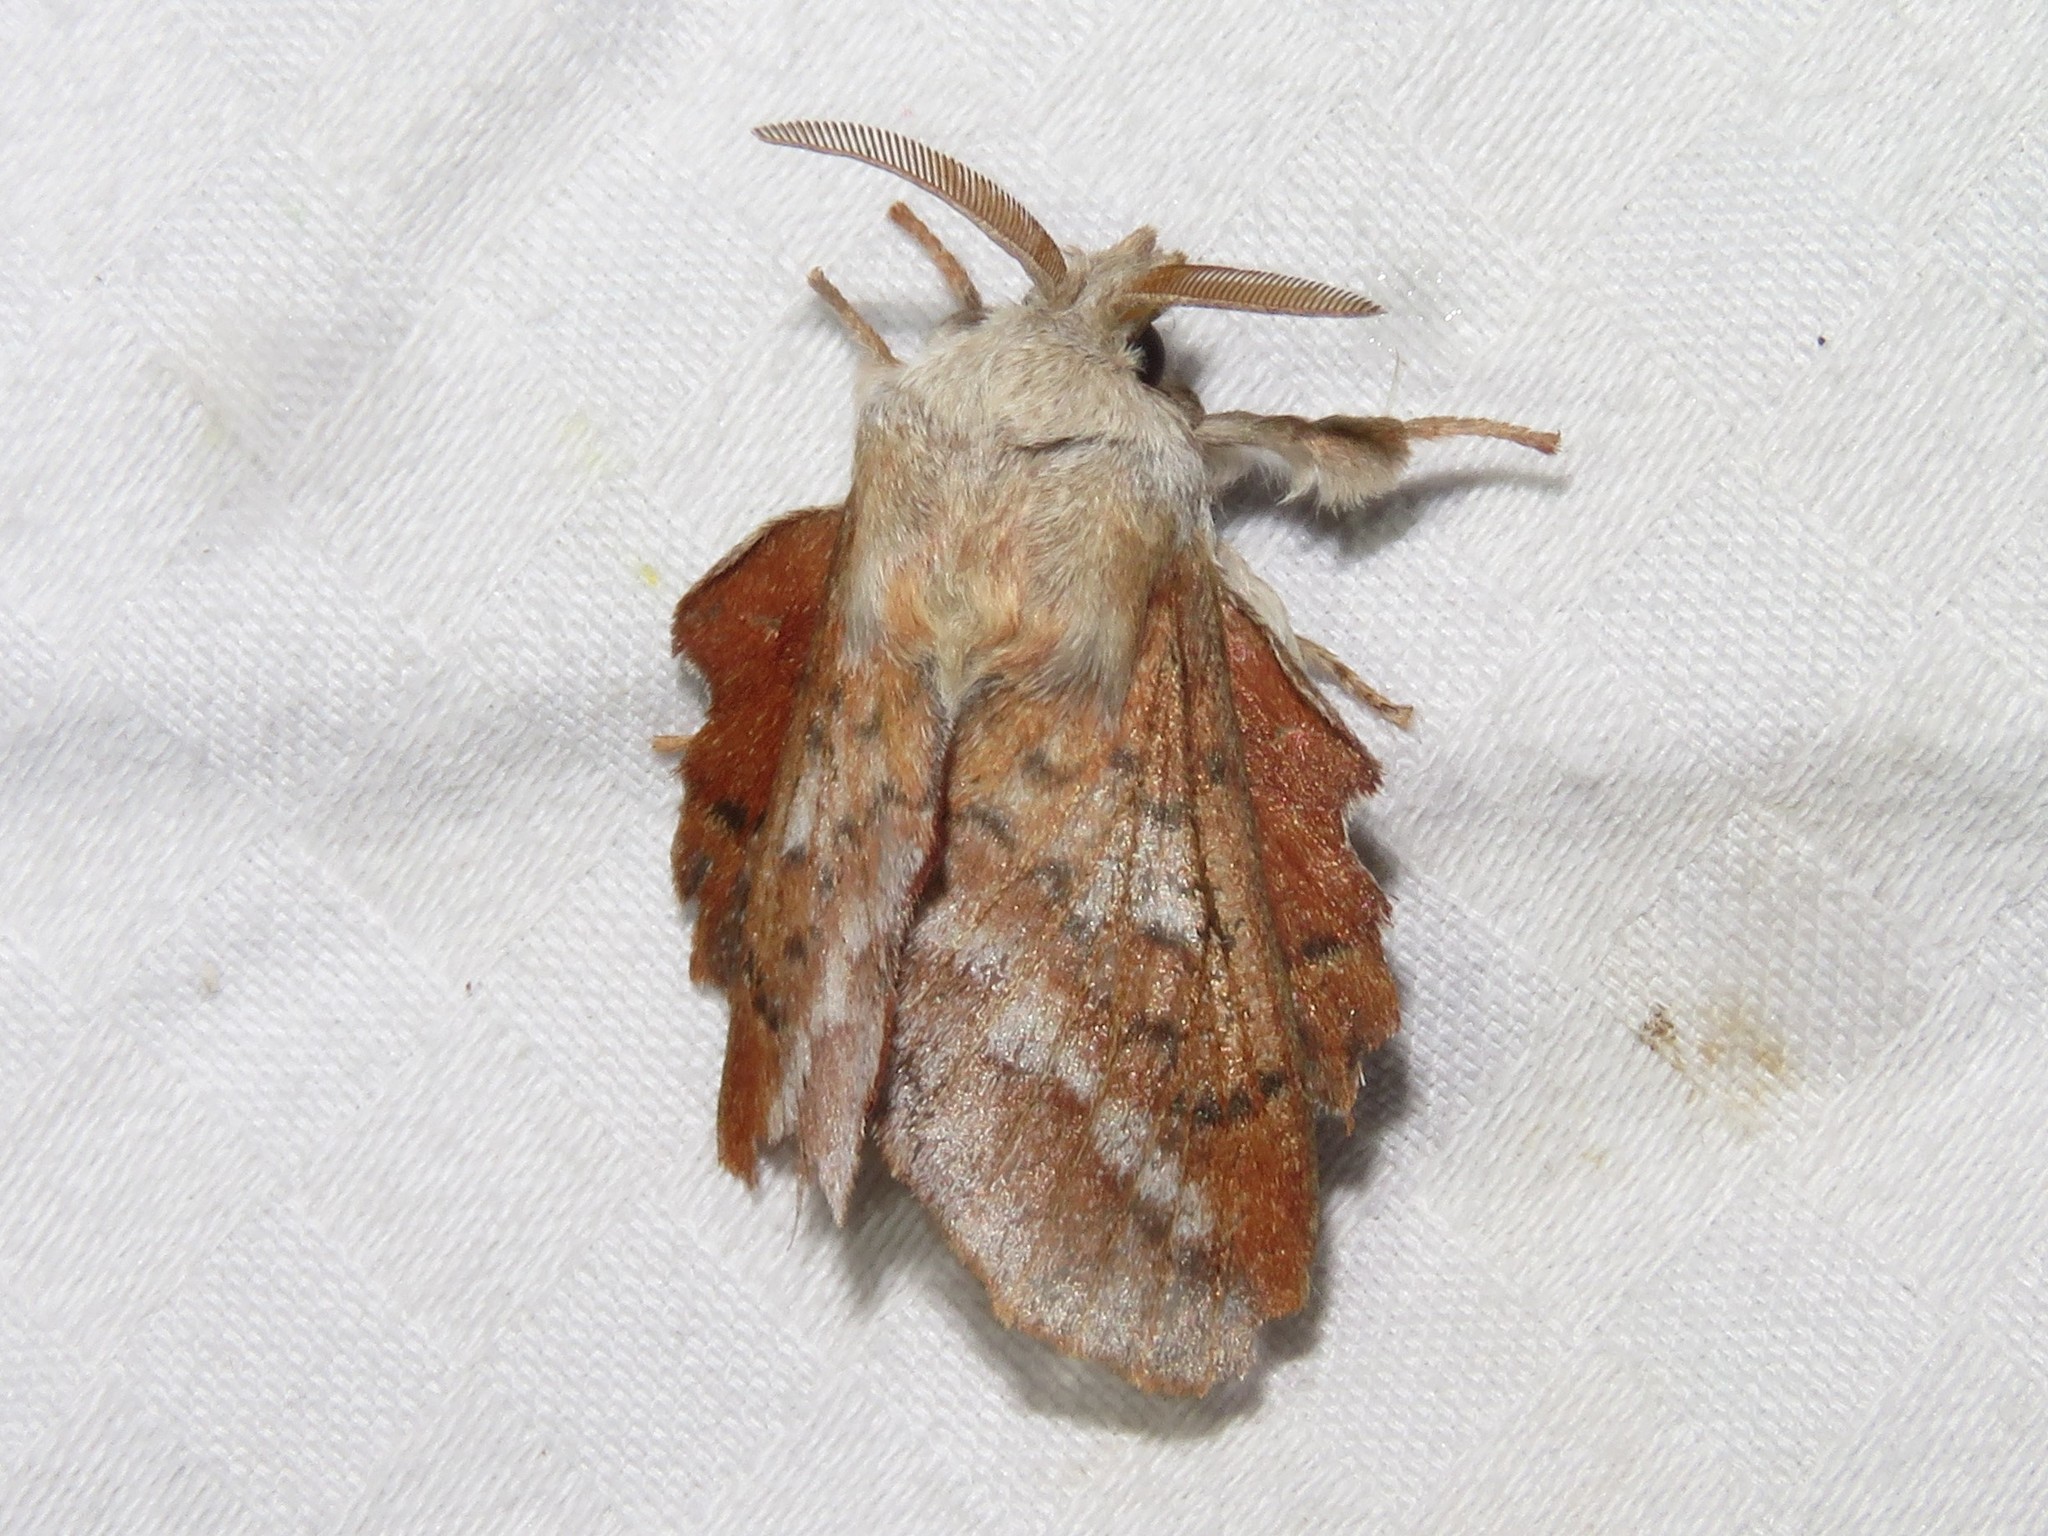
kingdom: Animalia
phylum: Arthropoda
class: Insecta
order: Lepidoptera
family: Lasiocampidae
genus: Phyllodesma
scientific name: Phyllodesma americana
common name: American lappet moth
